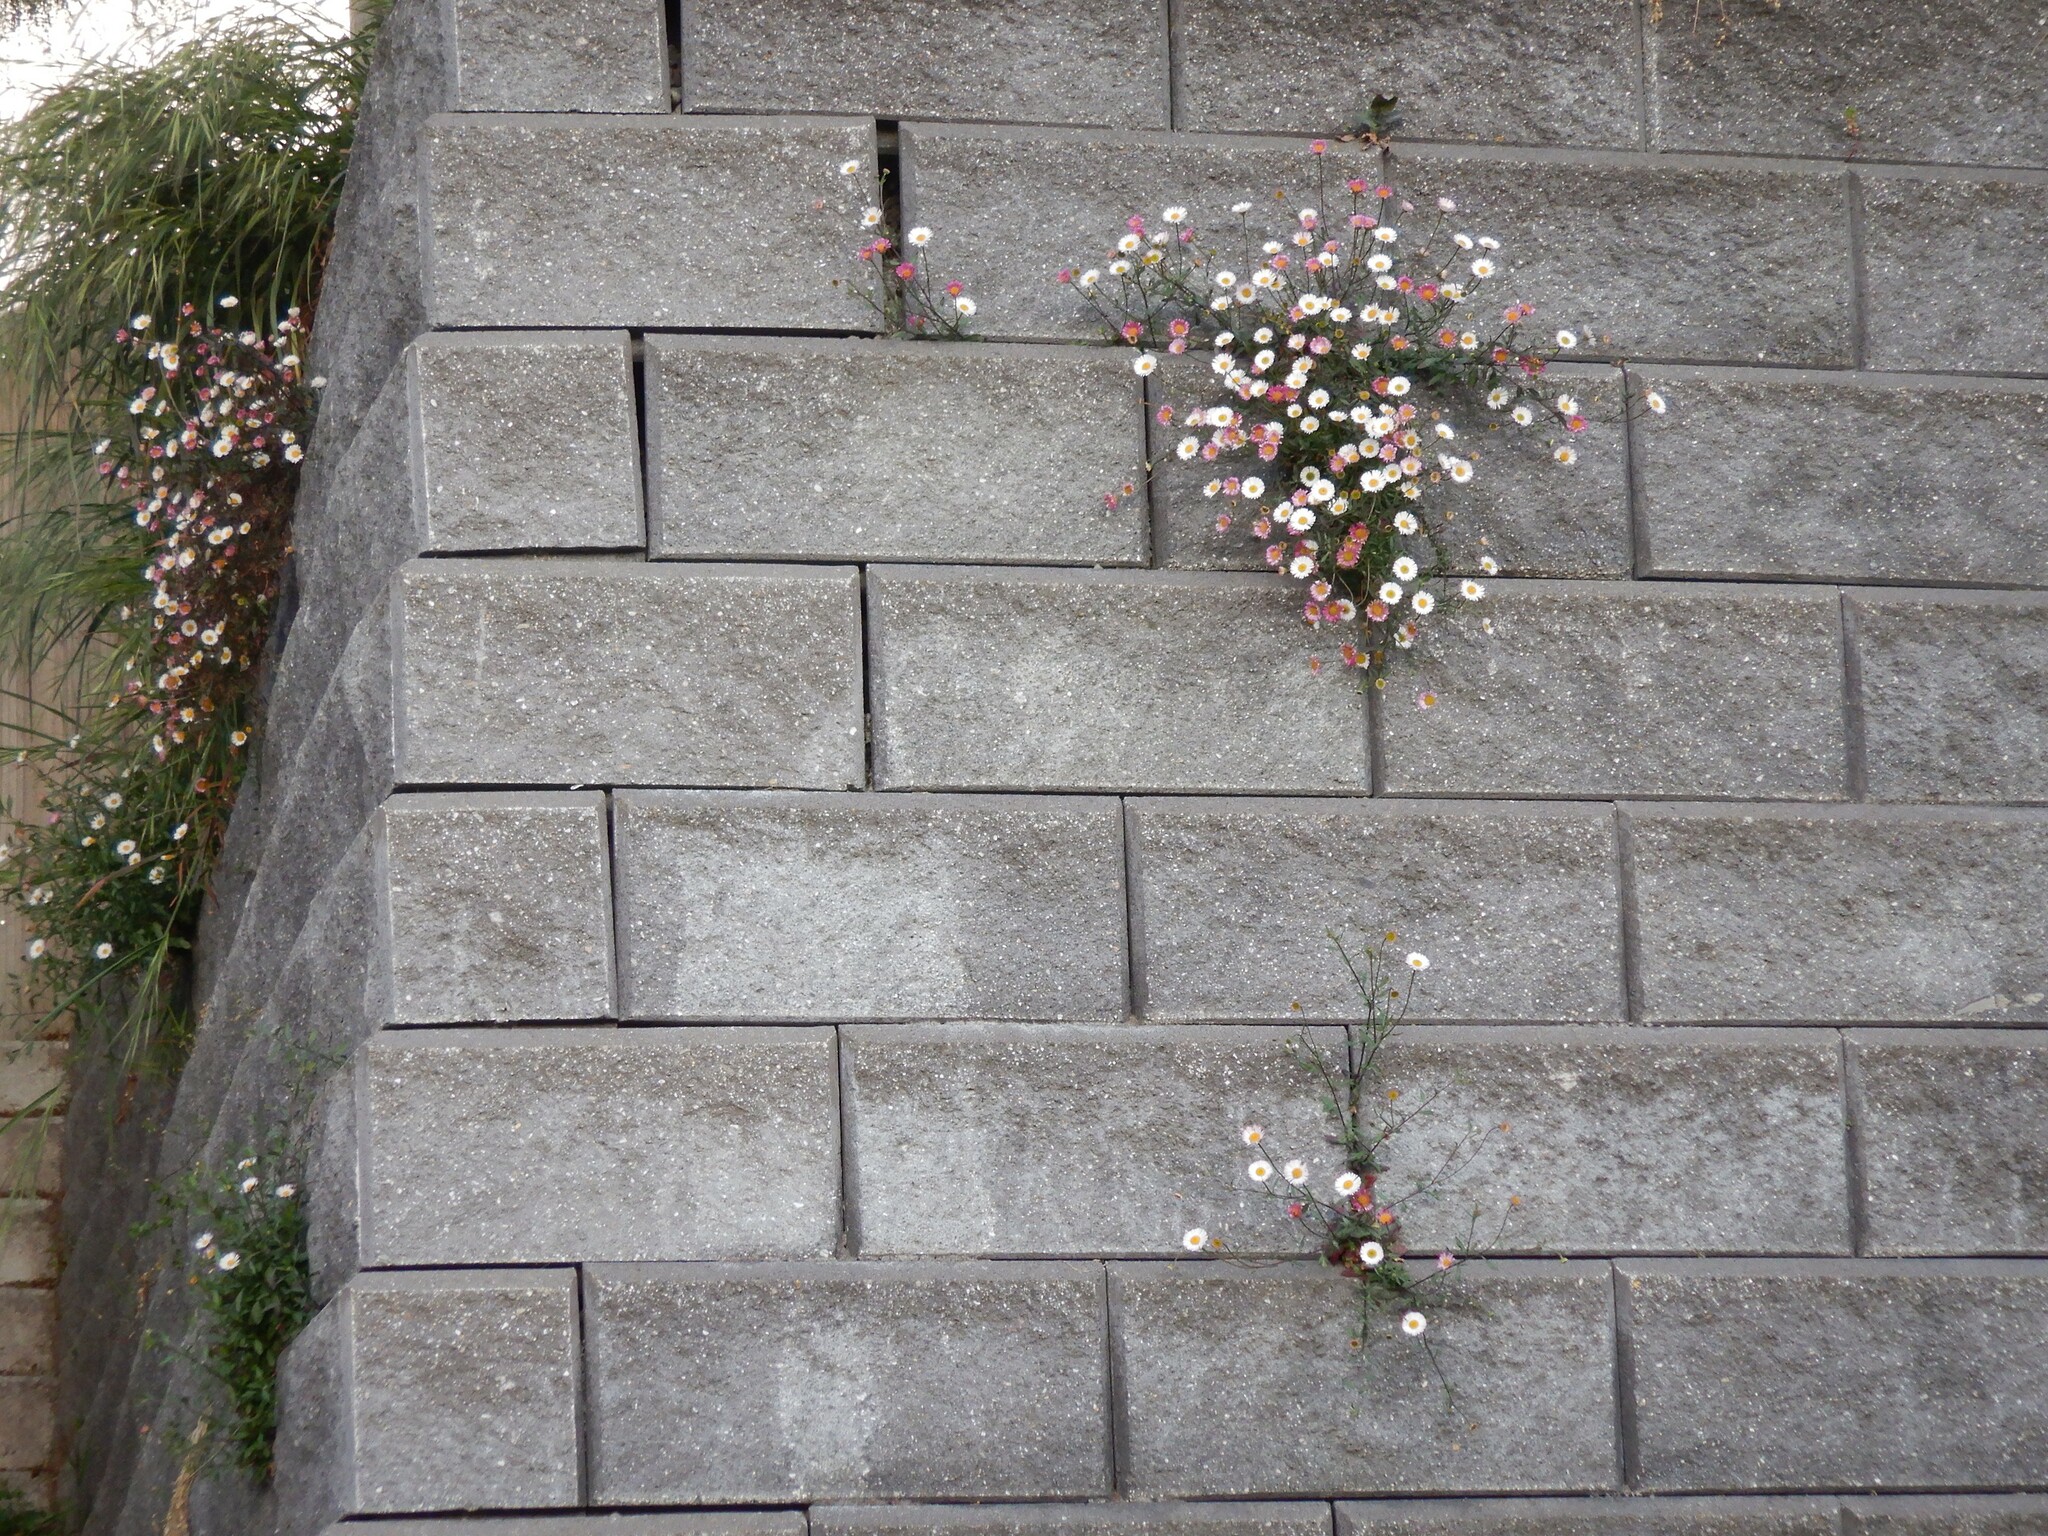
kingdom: Plantae
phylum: Tracheophyta
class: Magnoliopsida
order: Asterales
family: Asteraceae
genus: Erigeron
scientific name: Erigeron karvinskianus
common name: Mexican fleabane
